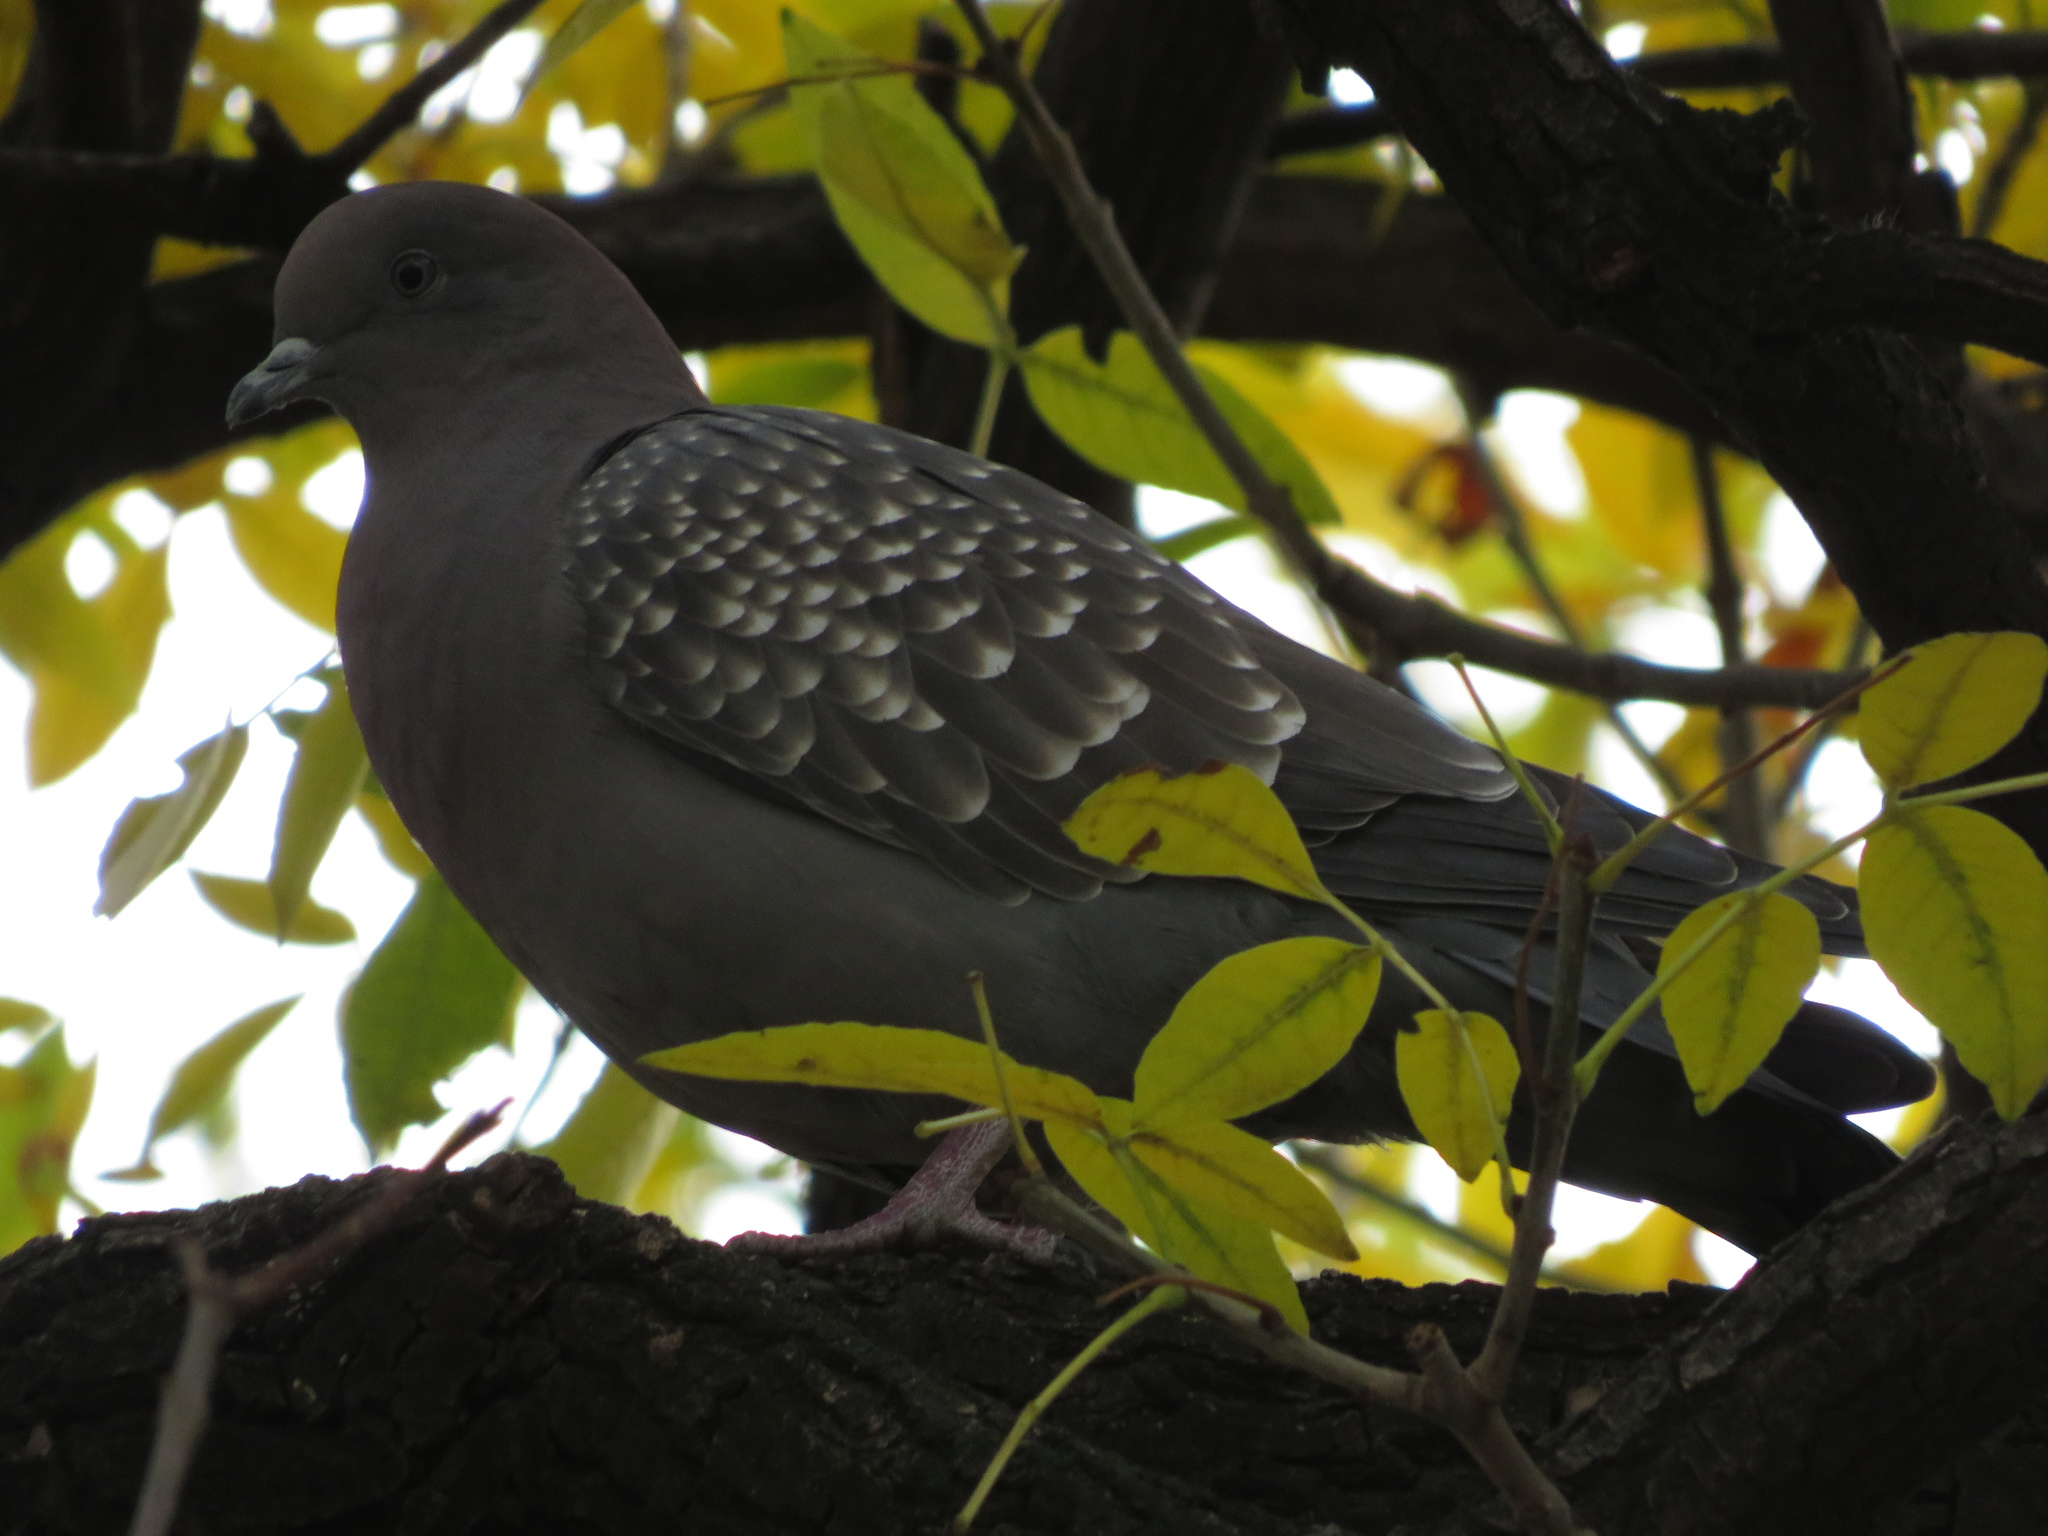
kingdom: Animalia
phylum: Chordata
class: Aves
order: Columbiformes
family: Columbidae
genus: Patagioenas
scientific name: Patagioenas maculosa
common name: Spot-winged pigeon
